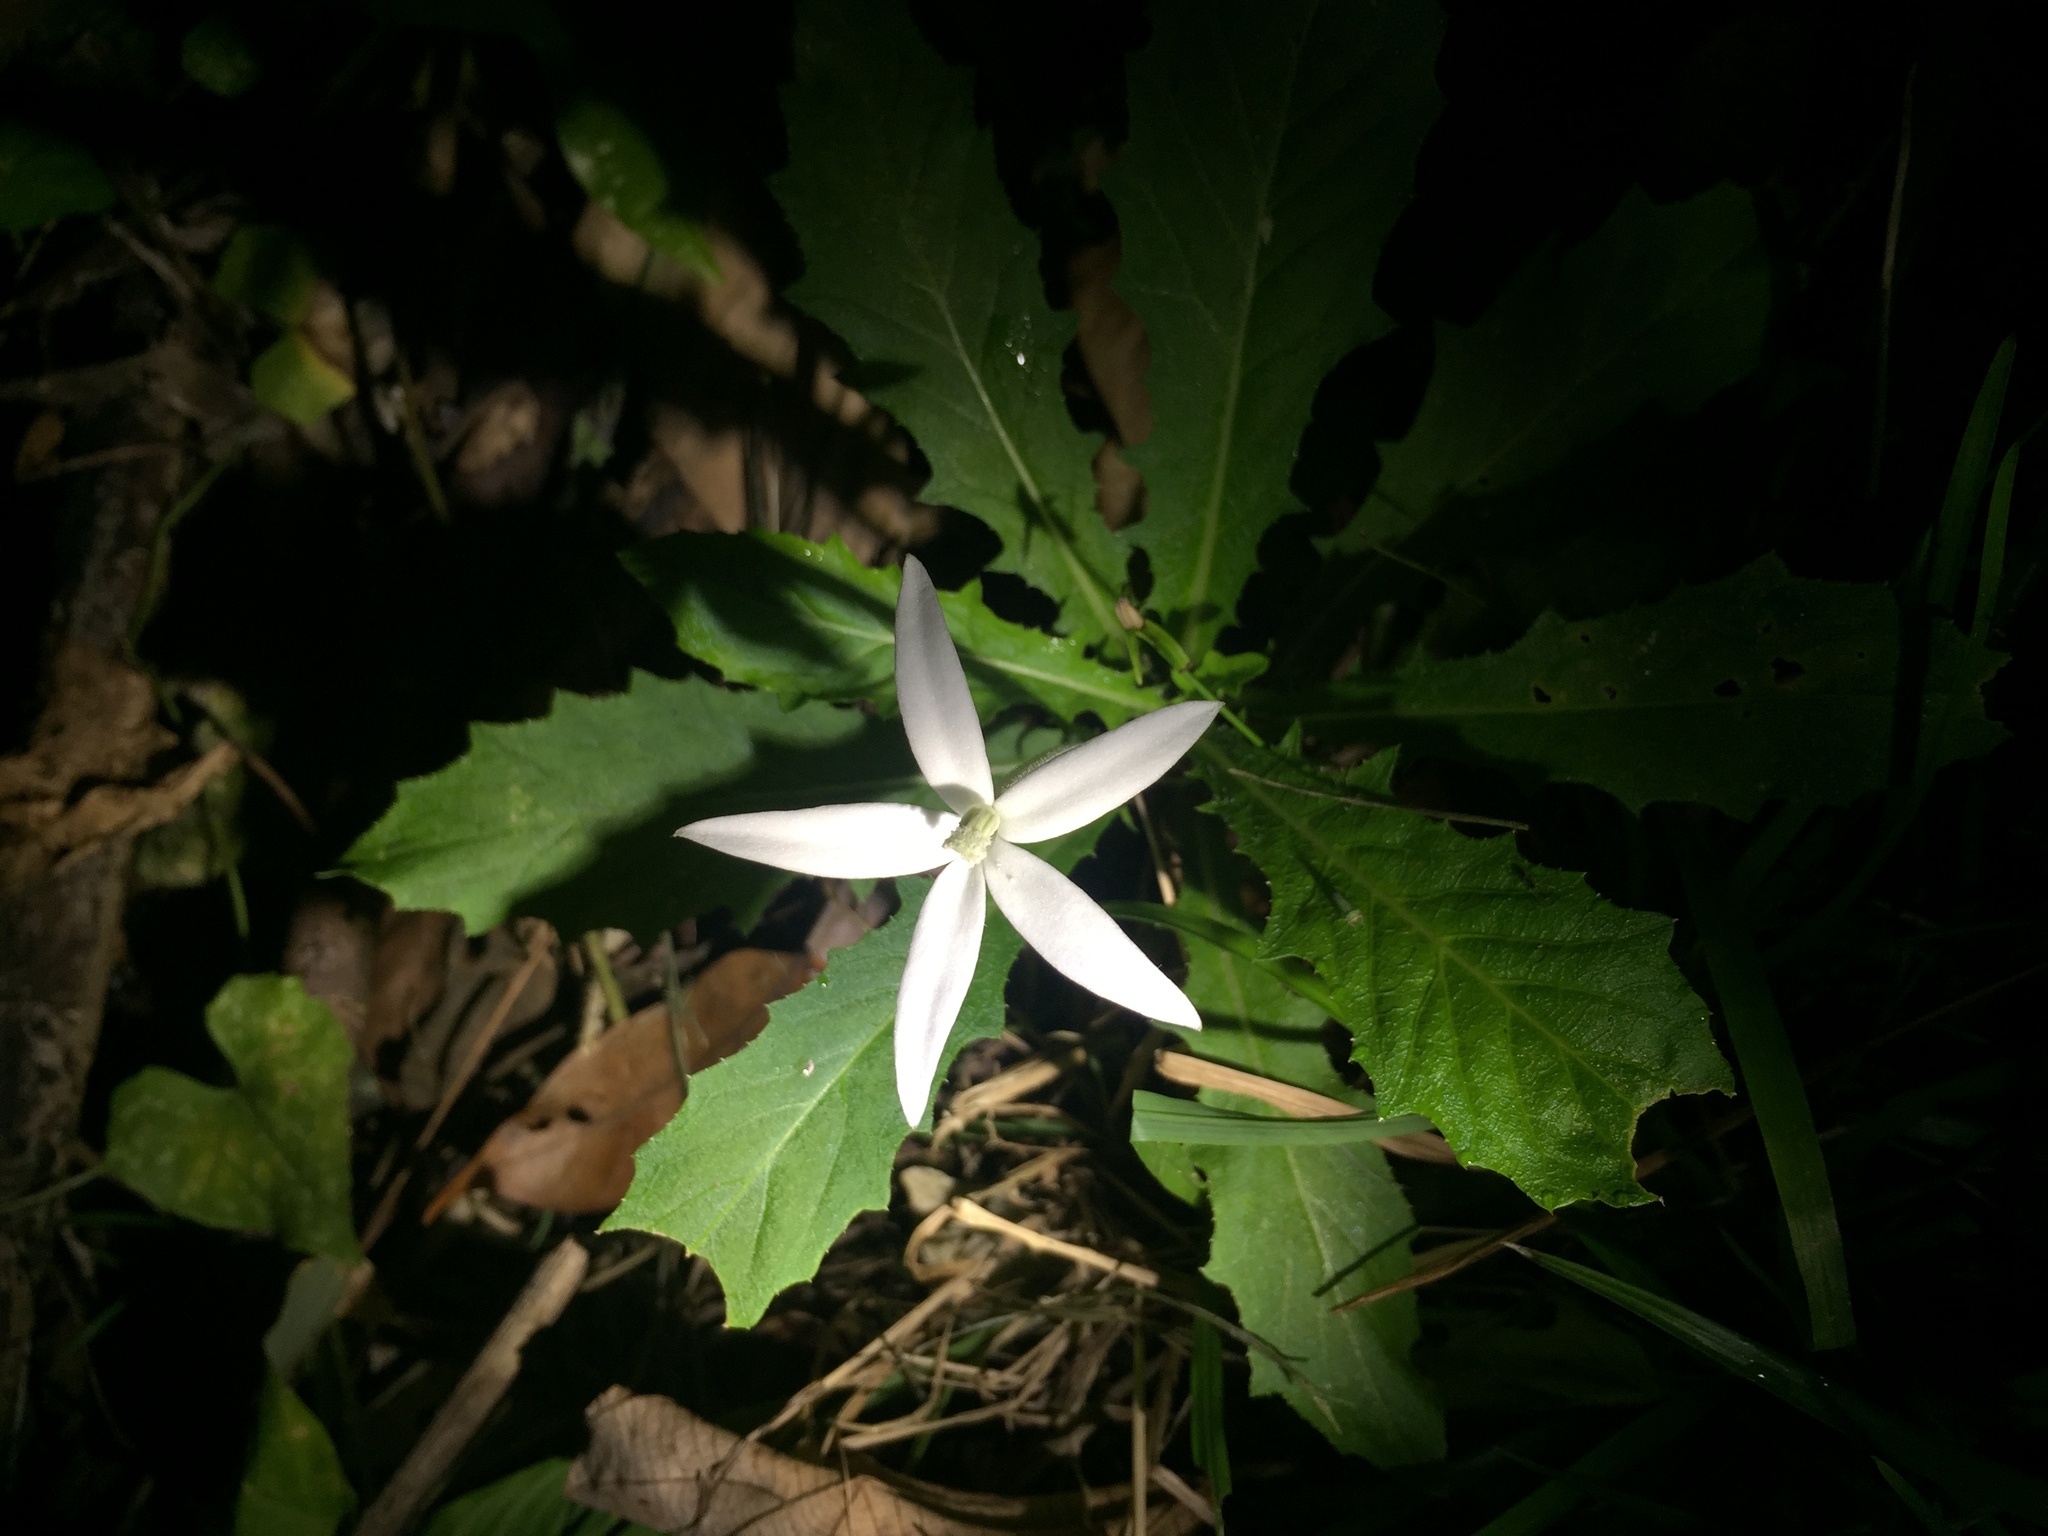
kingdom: Plantae
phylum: Tracheophyta
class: Magnoliopsida
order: Asterales
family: Campanulaceae
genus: Hippobroma
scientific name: Hippobroma longiflora
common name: Madamfate
